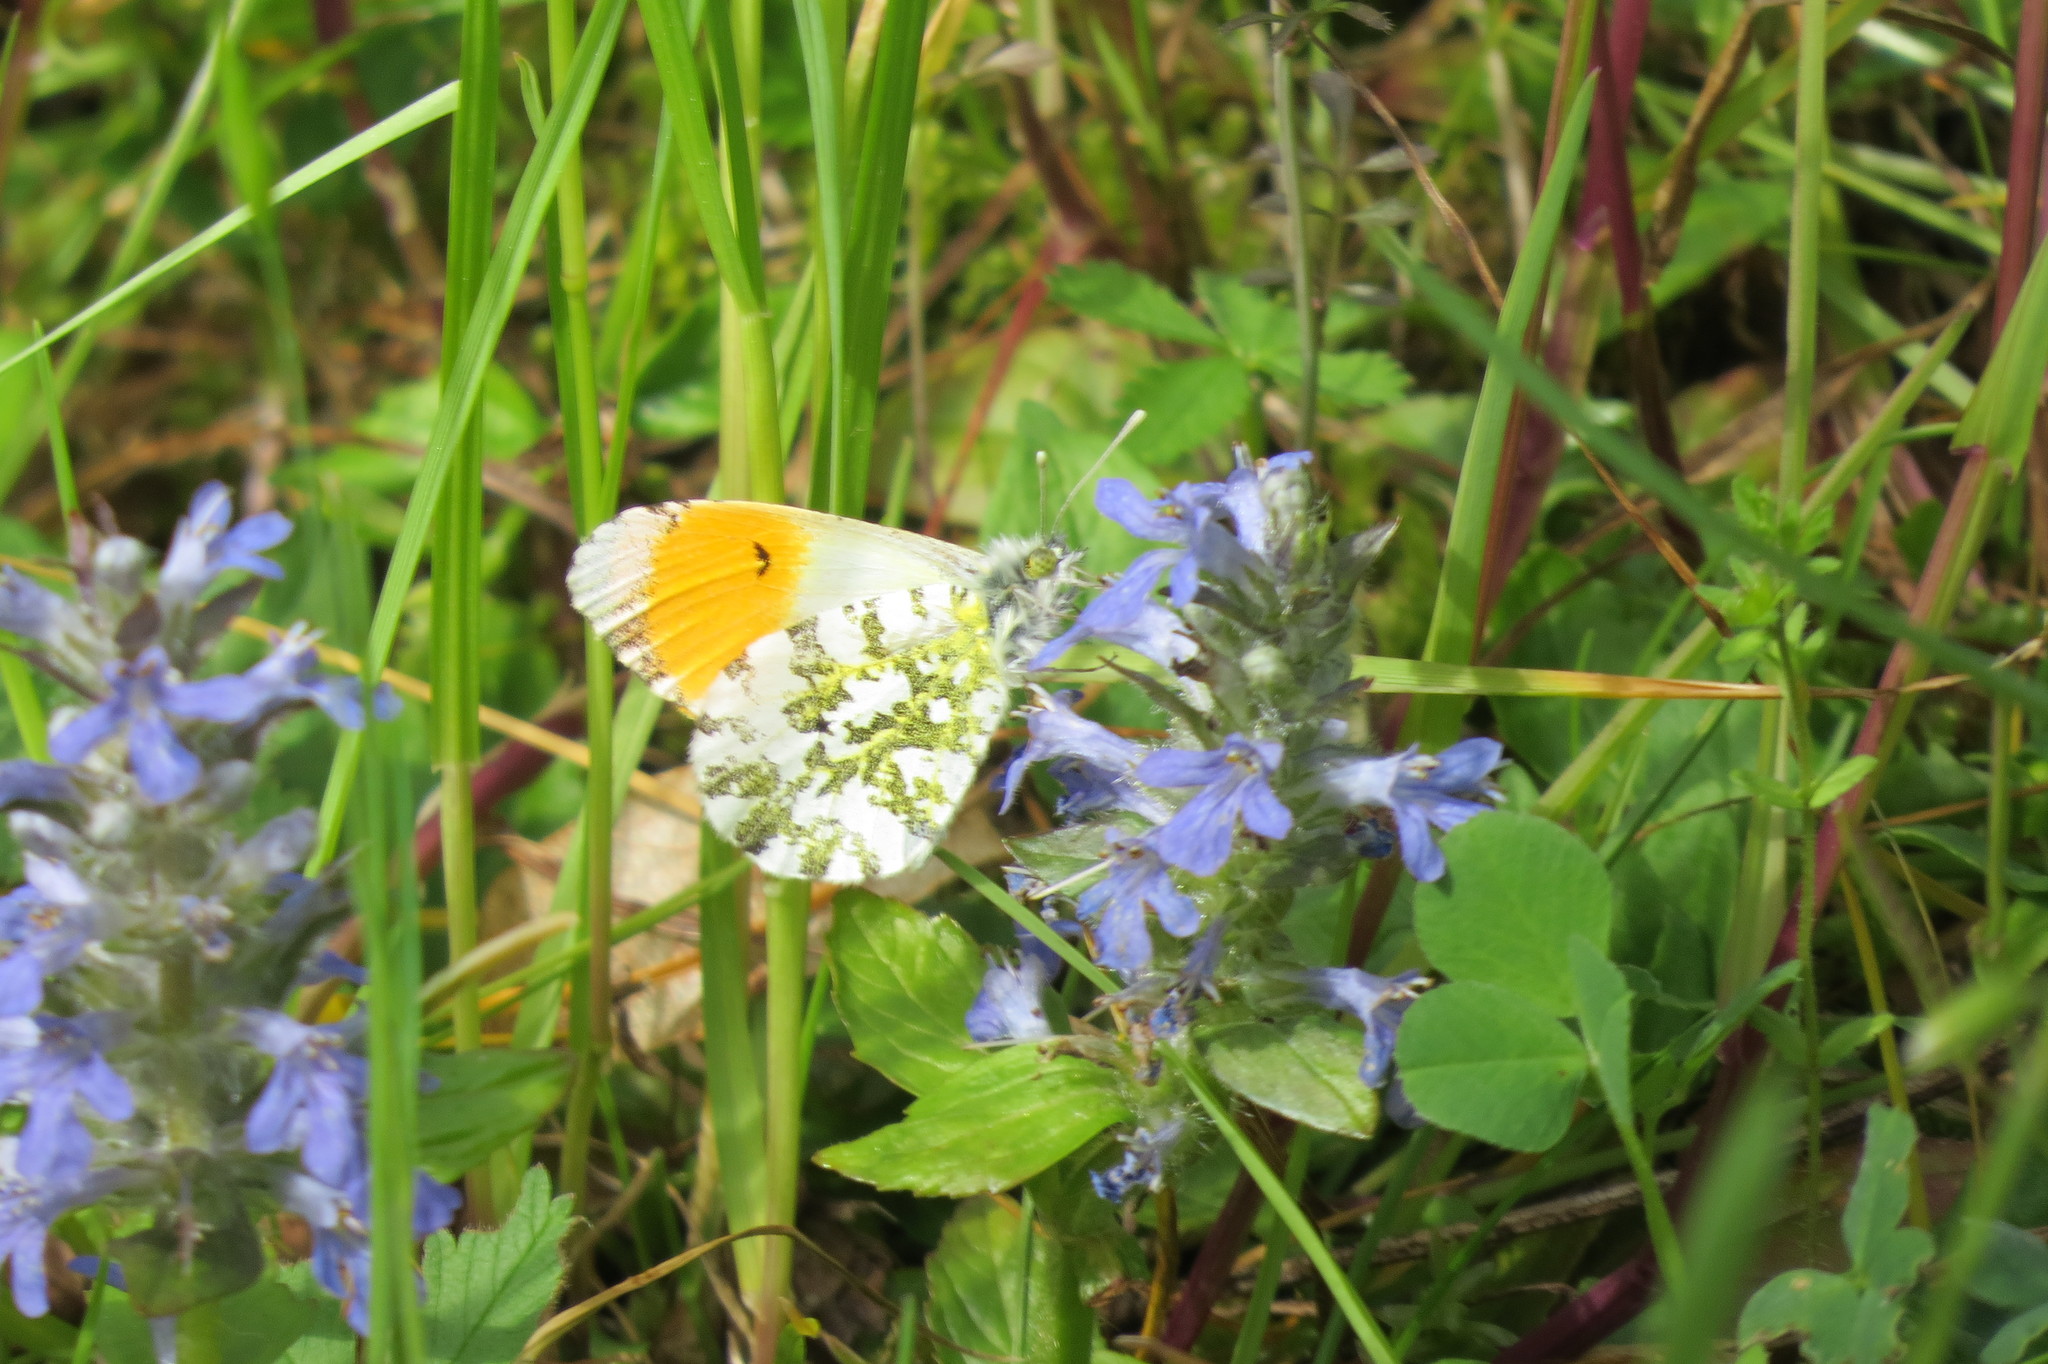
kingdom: Animalia
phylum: Arthropoda
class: Insecta
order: Lepidoptera
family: Pieridae
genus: Anthocharis
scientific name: Anthocharis cardamines
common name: Orange-tip
